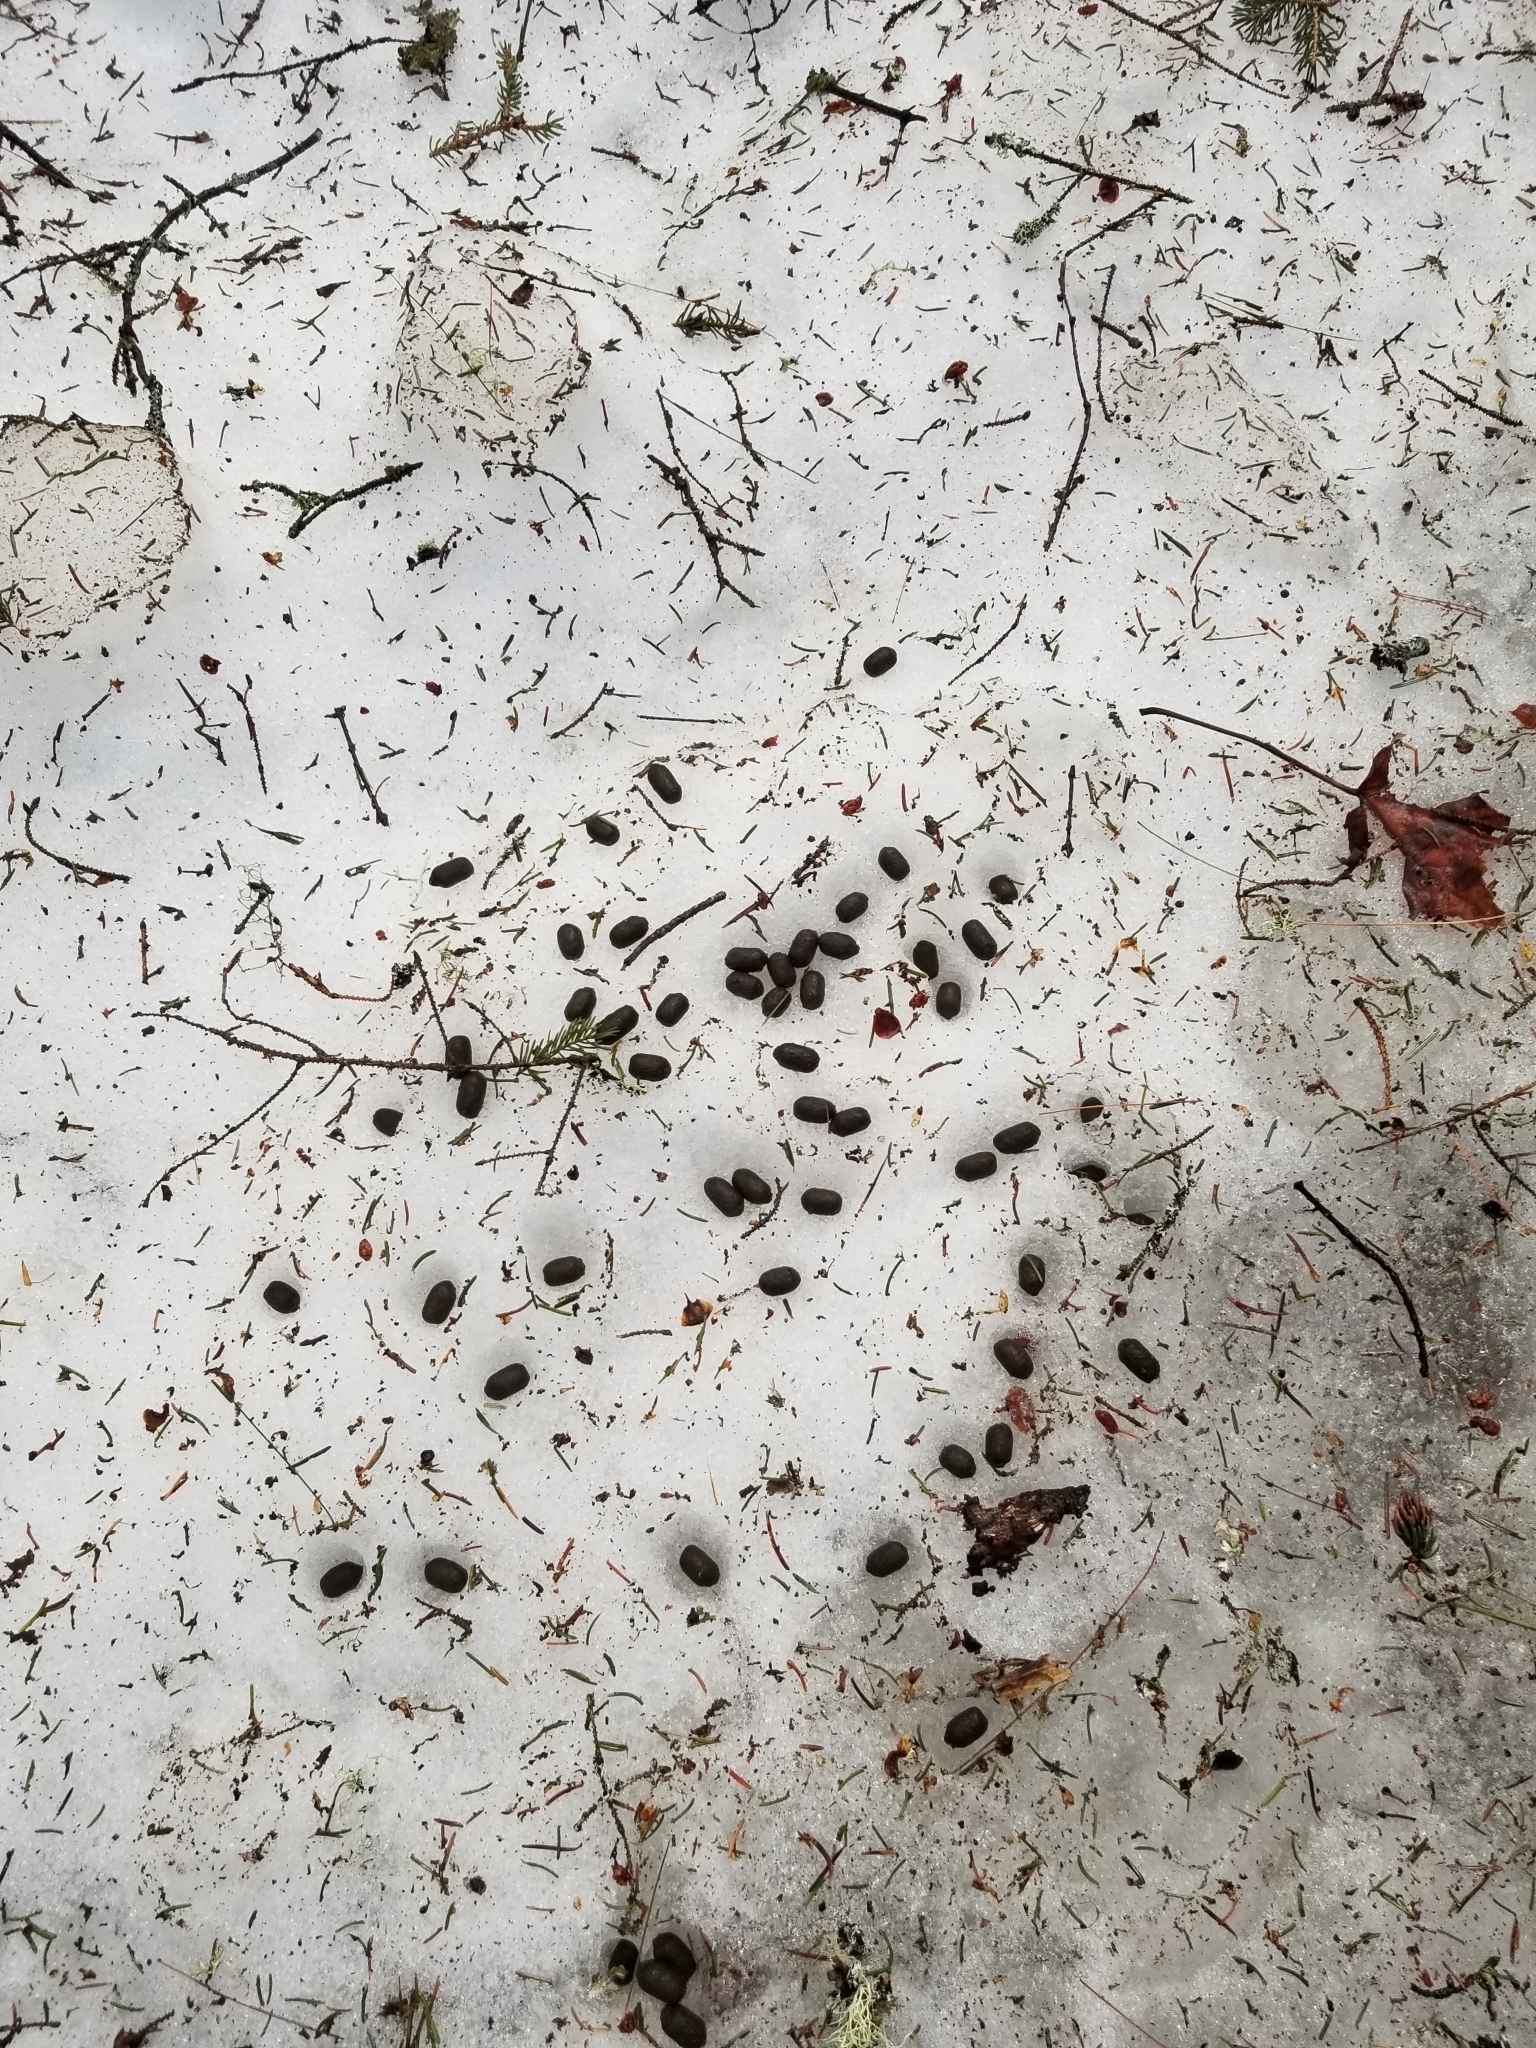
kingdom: Animalia
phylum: Chordata
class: Mammalia
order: Artiodactyla
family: Cervidae
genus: Odocoileus
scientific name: Odocoileus virginianus
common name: White-tailed deer
